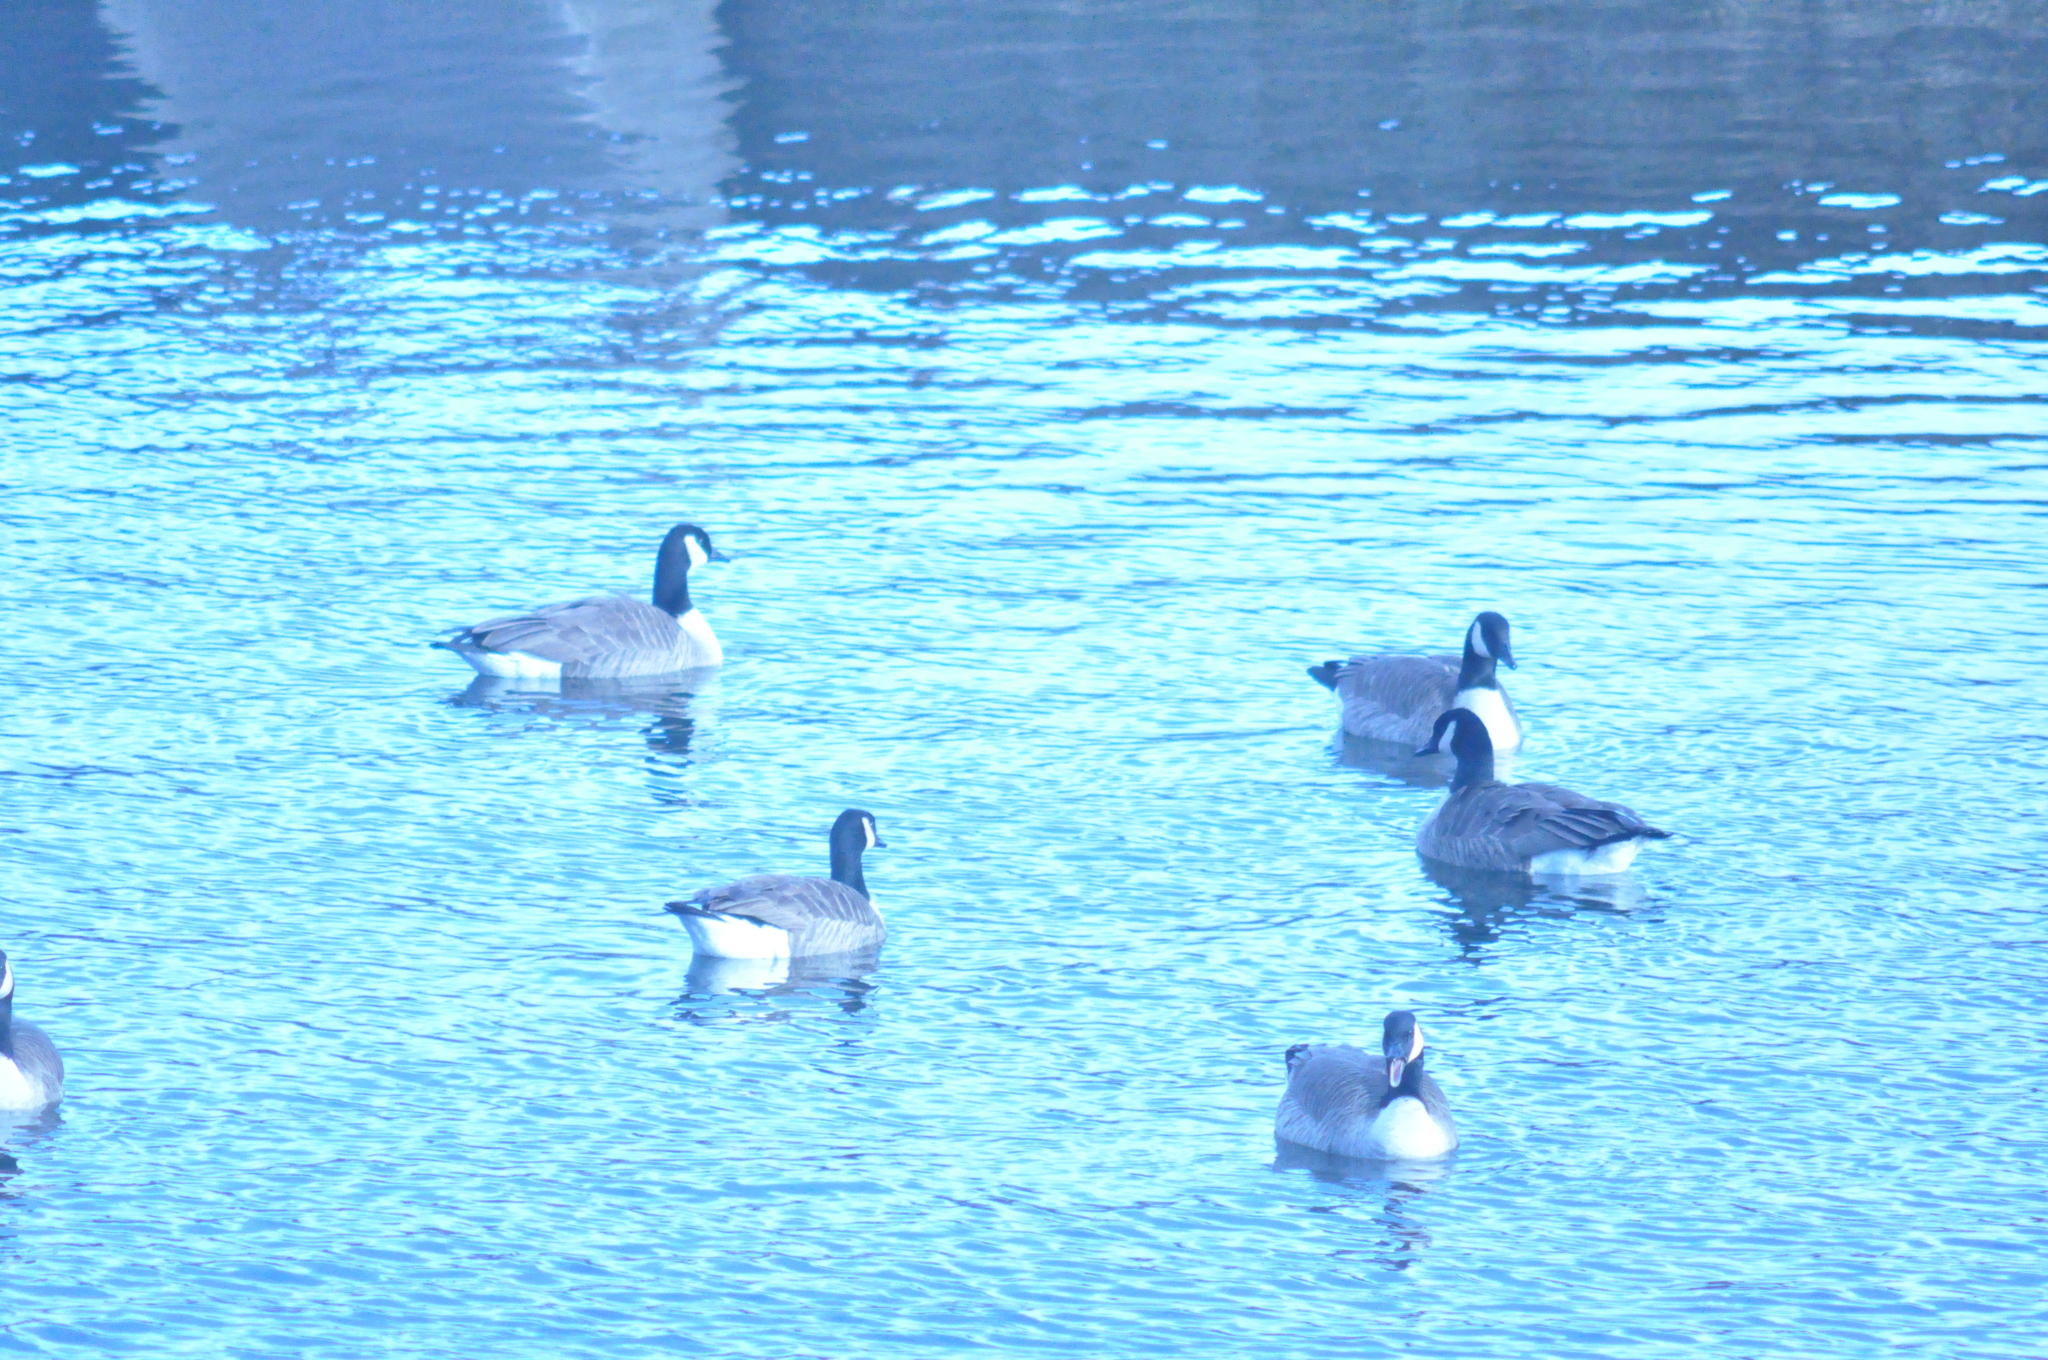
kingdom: Animalia
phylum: Chordata
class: Aves
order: Anseriformes
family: Anatidae
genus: Branta
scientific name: Branta canadensis
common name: Canada goose
